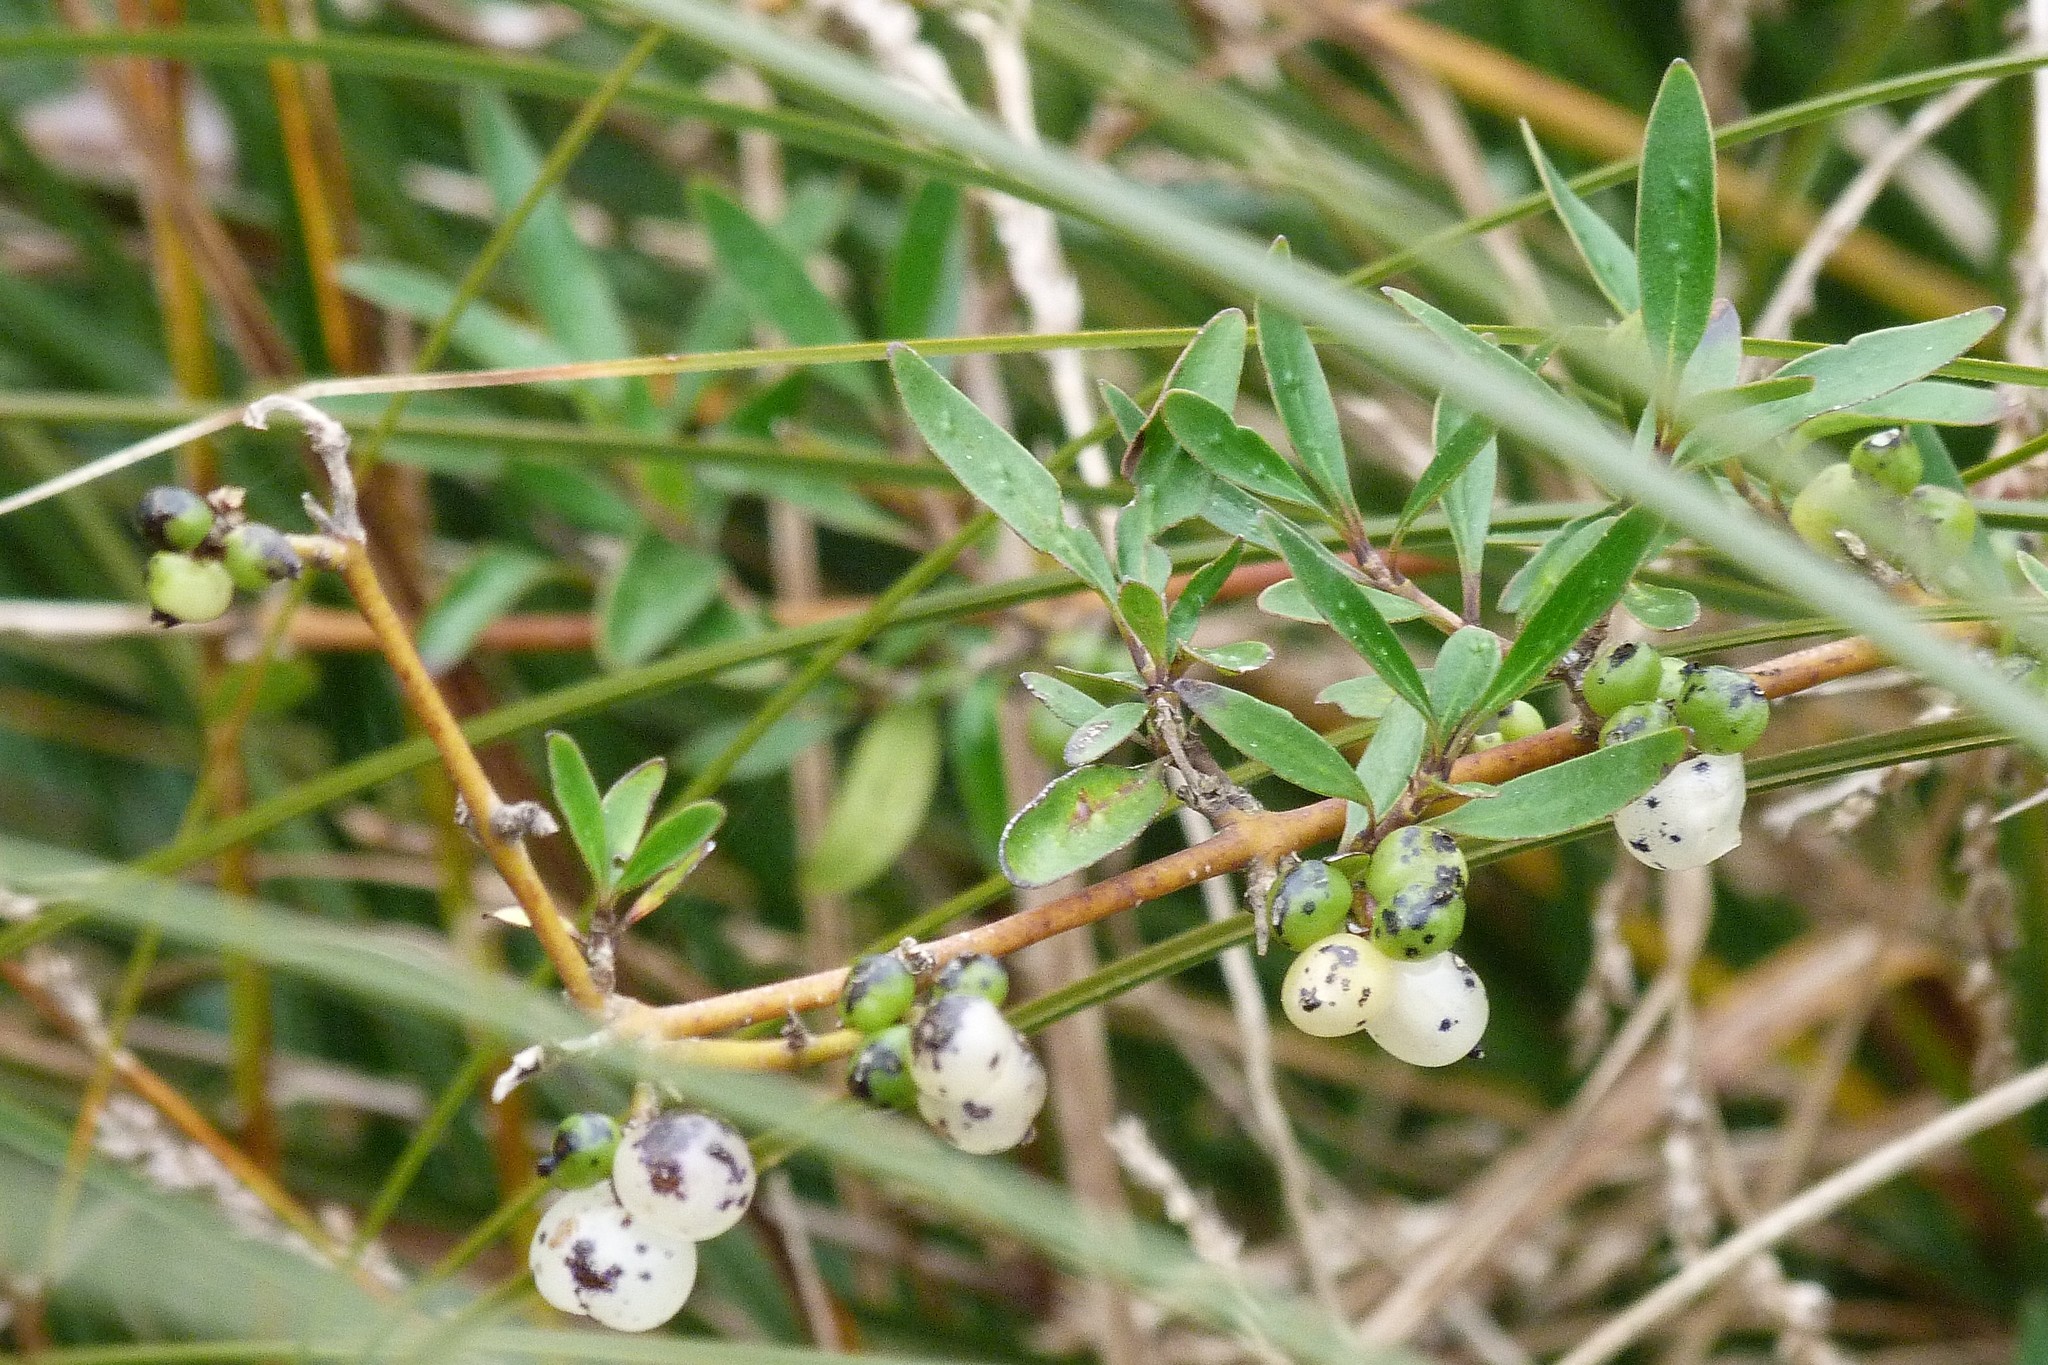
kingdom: Plantae
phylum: Tracheophyta
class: Magnoliopsida
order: Gentianales
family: Rubiaceae
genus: Coprosma
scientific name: Coprosma propinqua
